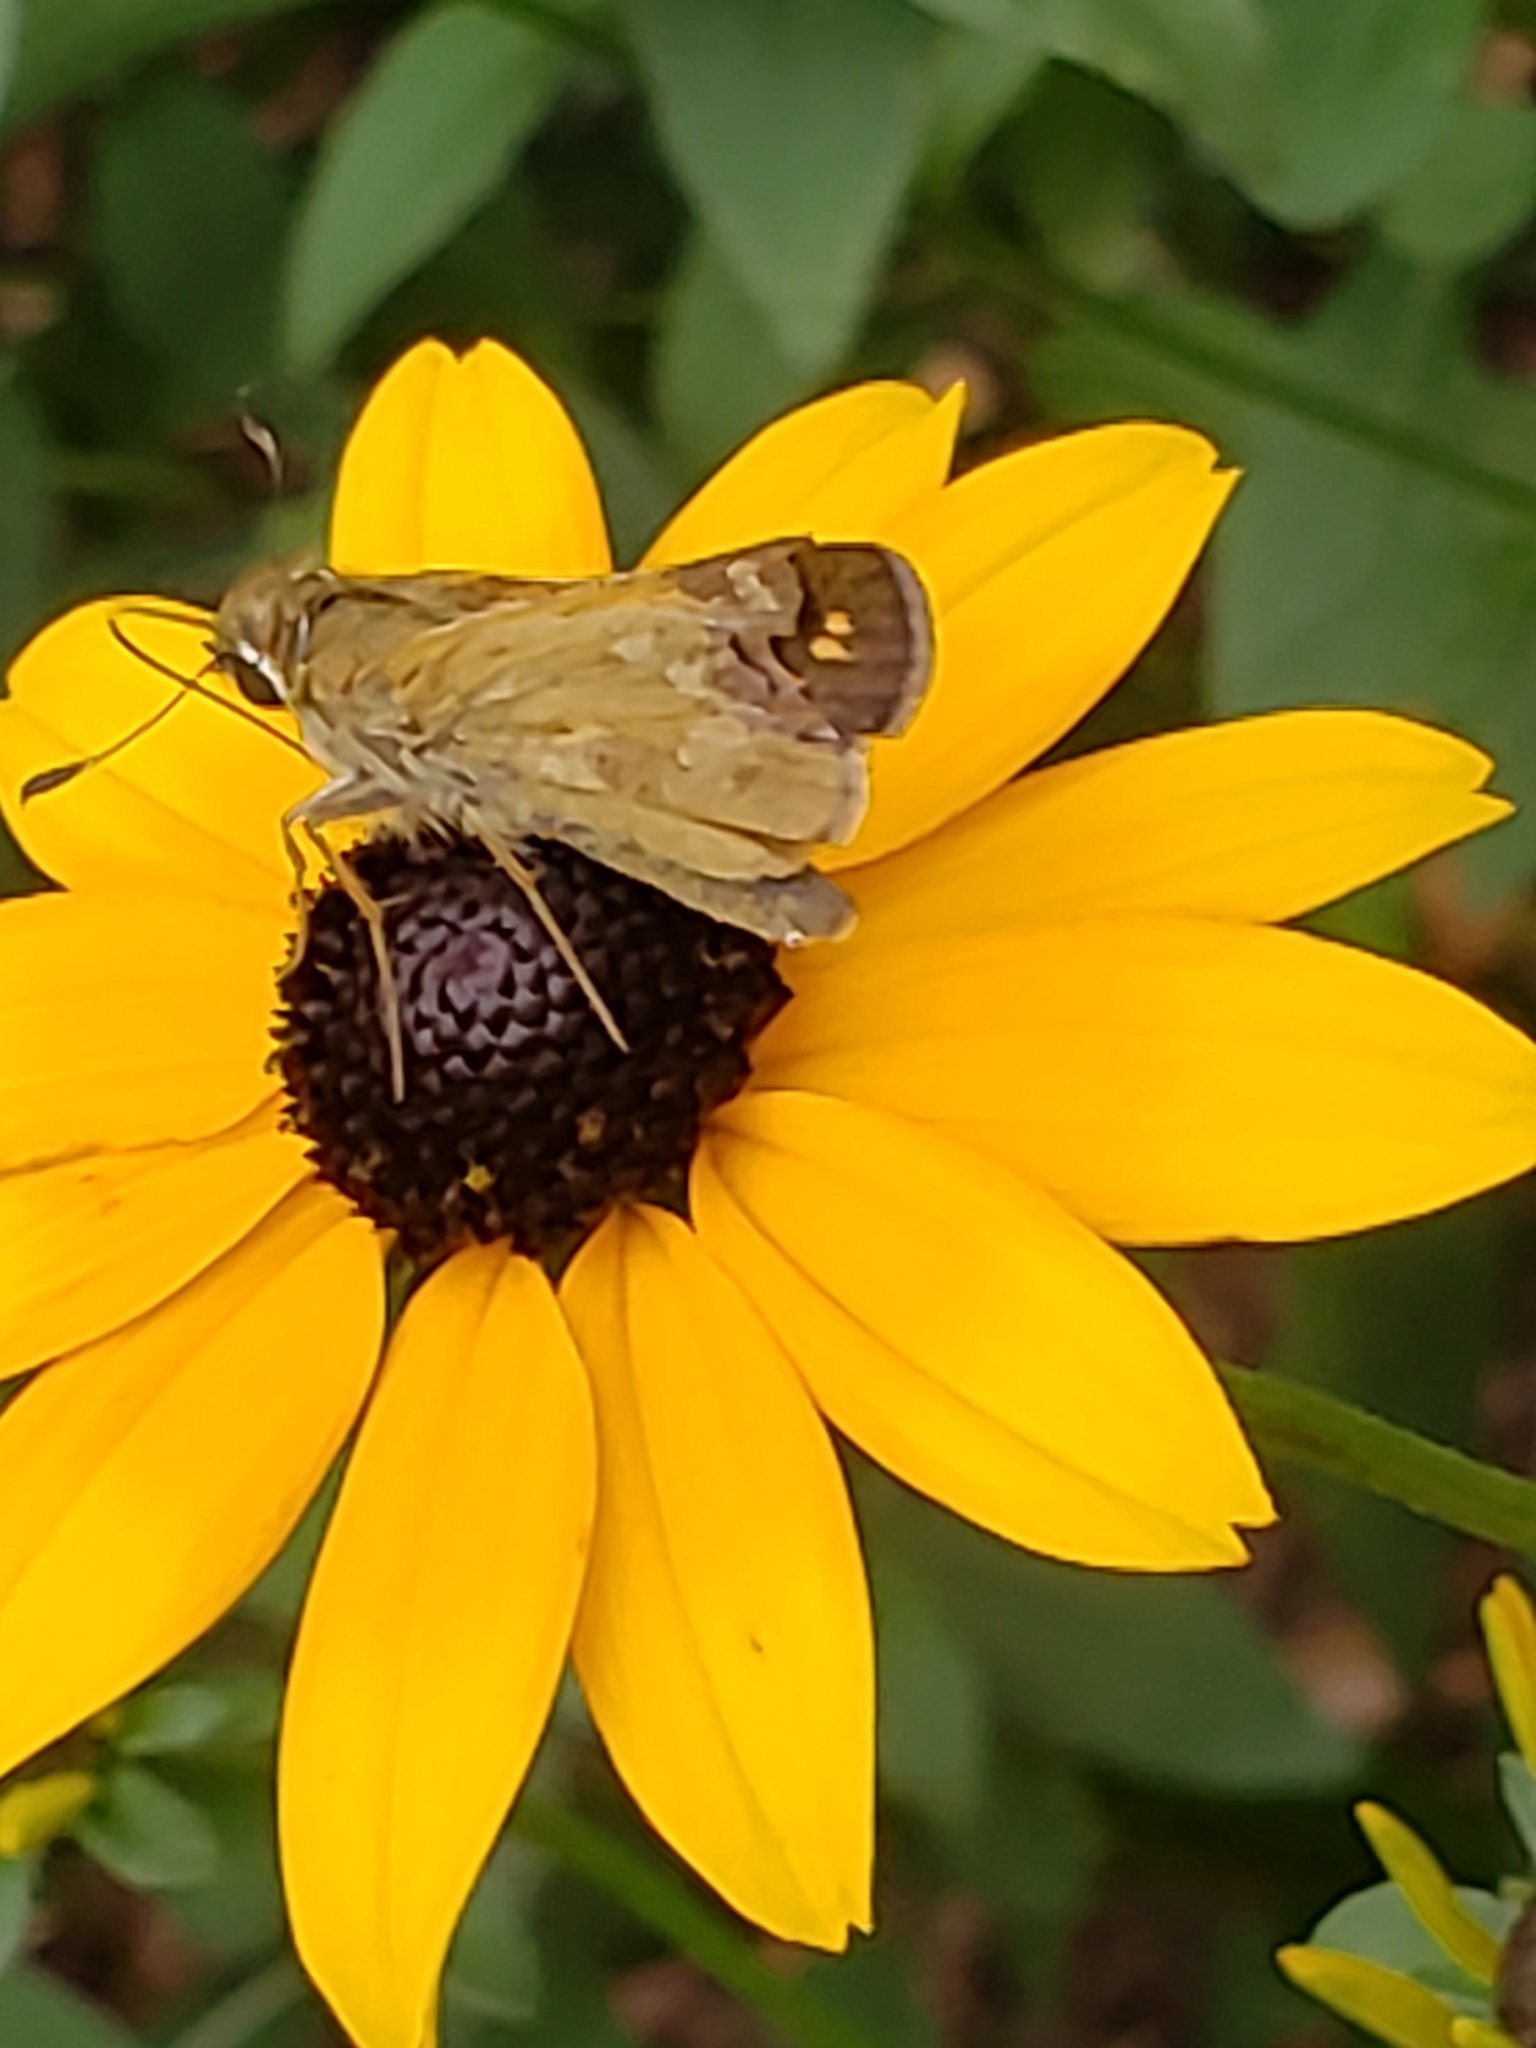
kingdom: Animalia
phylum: Arthropoda
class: Insecta
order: Lepidoptera
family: Hesperiidae
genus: Atalopedes
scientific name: Atalopedes
